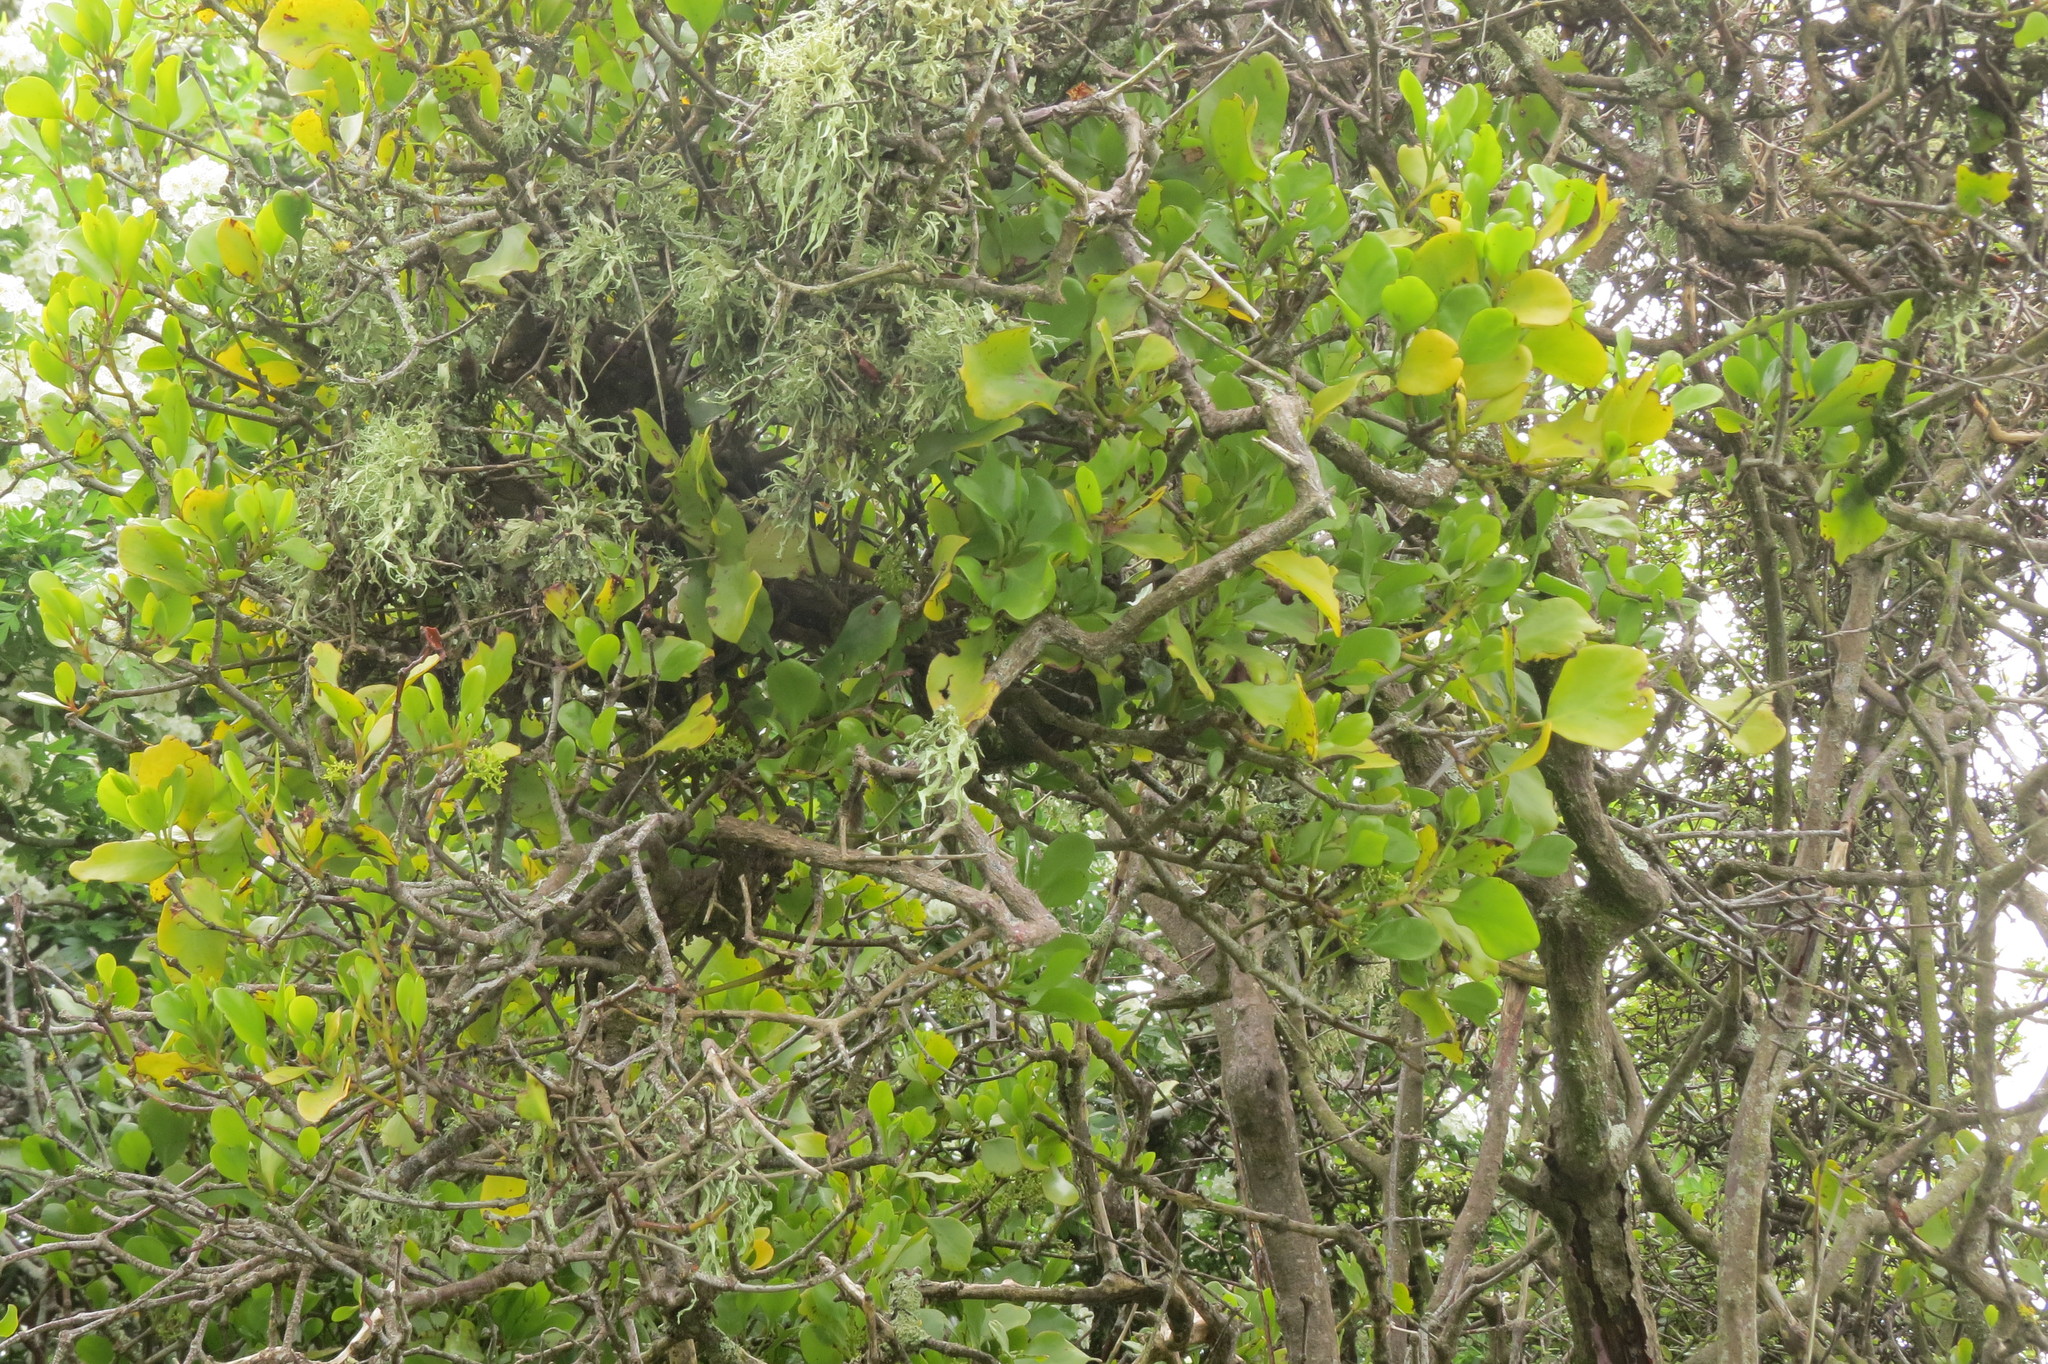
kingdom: Plantae
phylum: Tracheophyta
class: Magnoliopsida
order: Santalales
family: Loranthaceae
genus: Ileostylus
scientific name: Ileostylus micranthus
